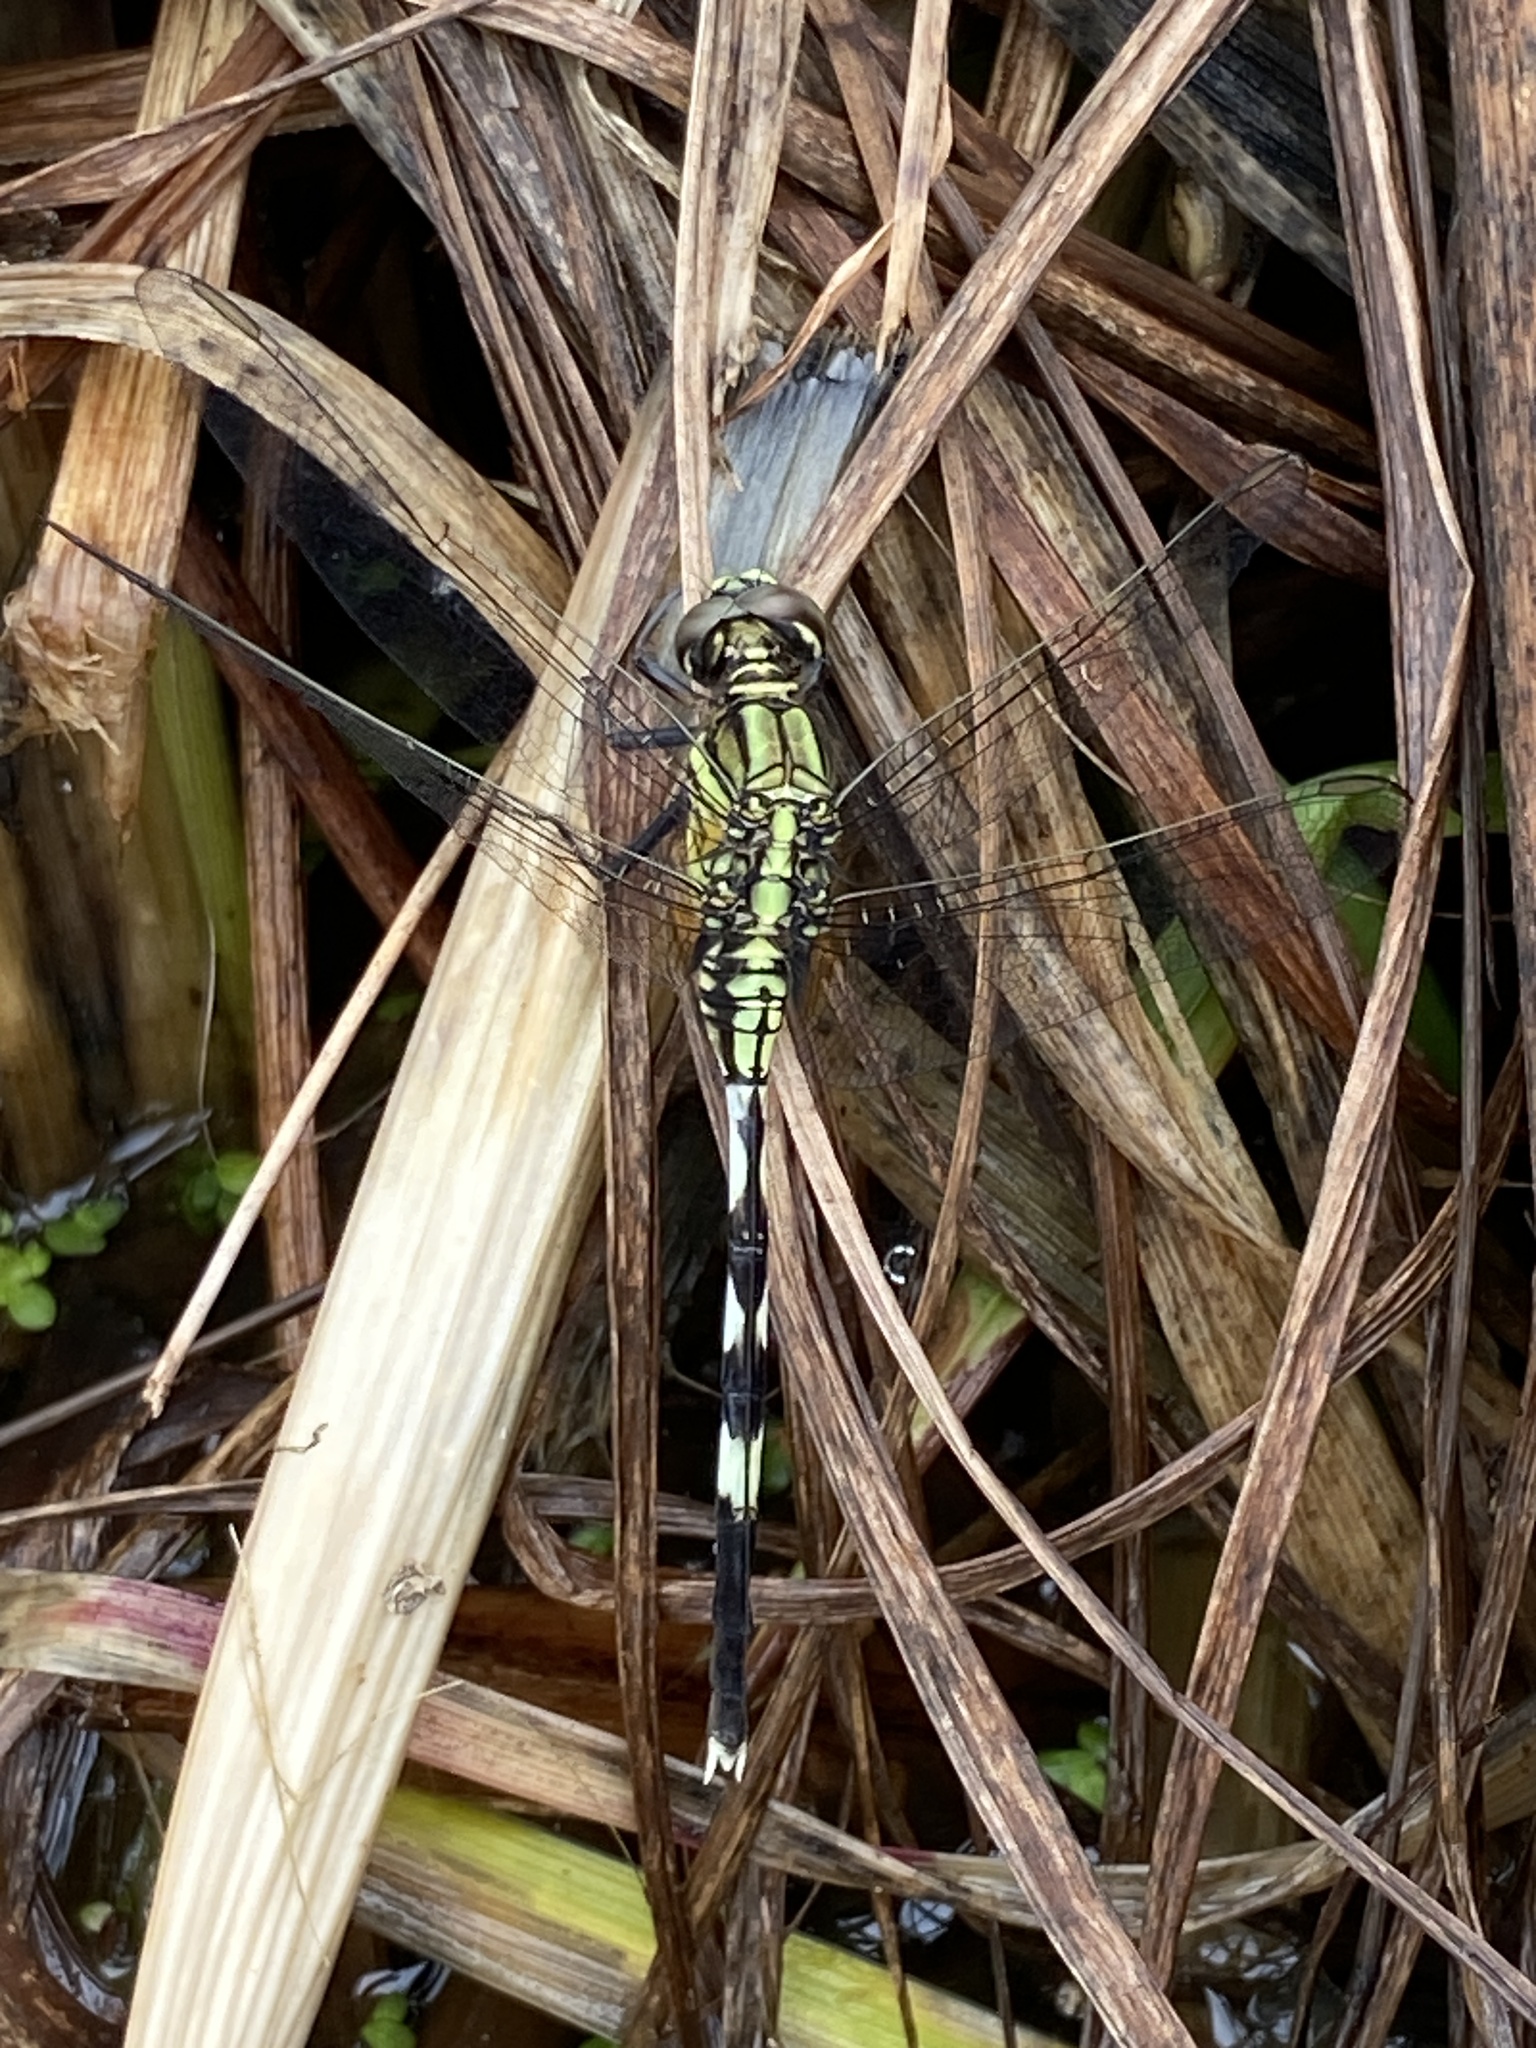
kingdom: Animalia
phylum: Arthropoda
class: Insecta
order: Odonata
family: Libellulidae
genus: Orthetrum
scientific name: Orthetrum sabina
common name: Slender skimmer
